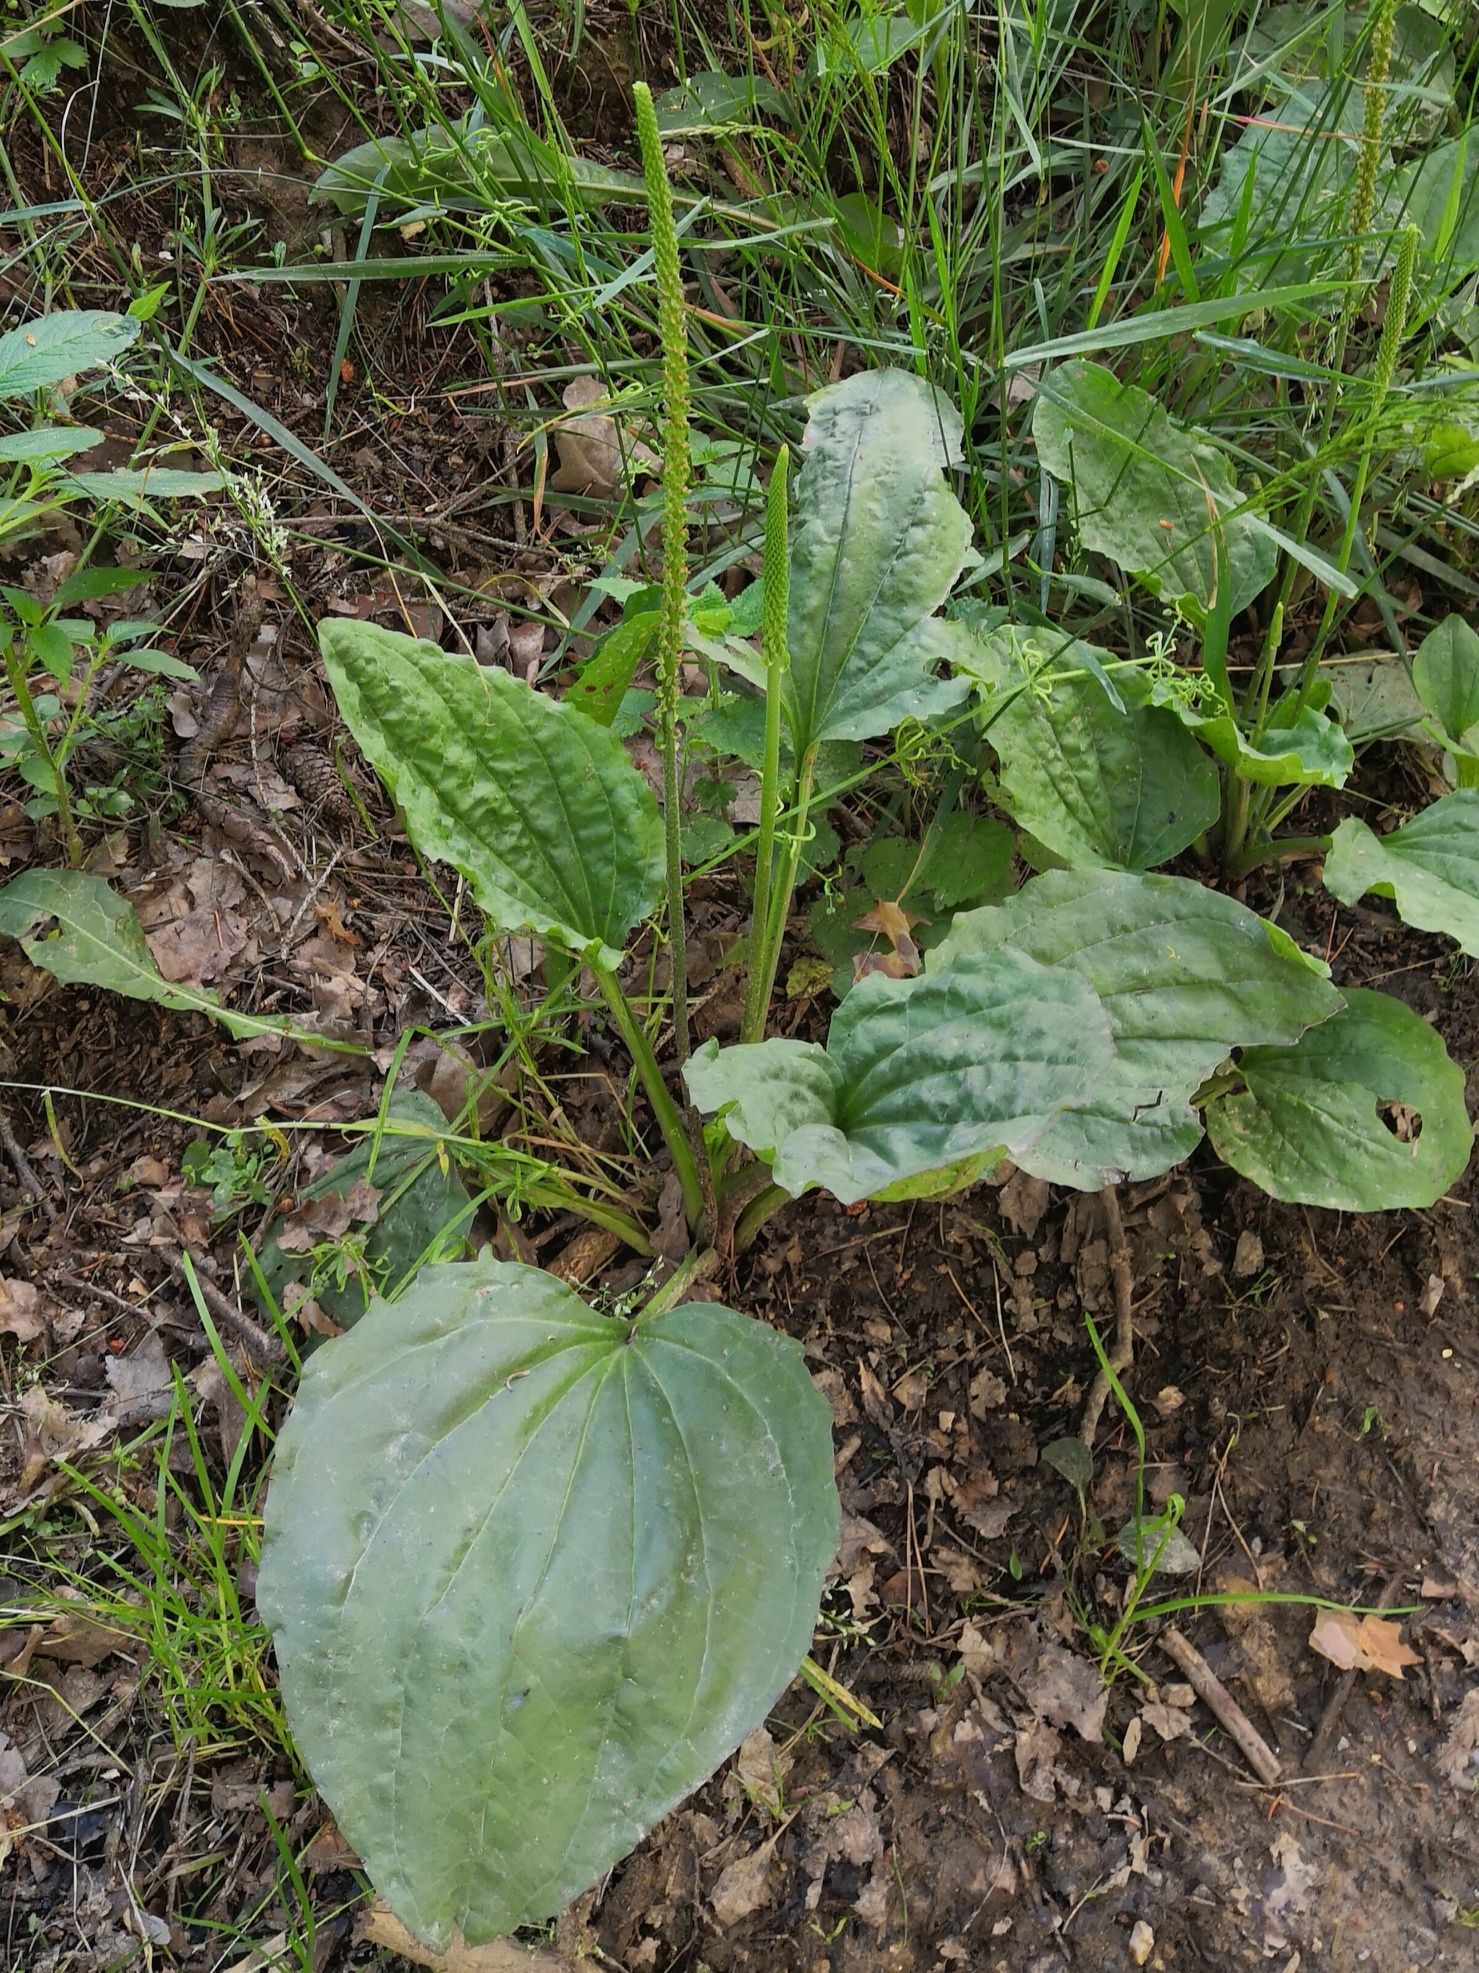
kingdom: Plantae
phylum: Tracheophyta
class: Magnoliopsida
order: Lamiales
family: Plantaginaceae
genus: Plantago
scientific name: Plantago major
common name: Common plantain
